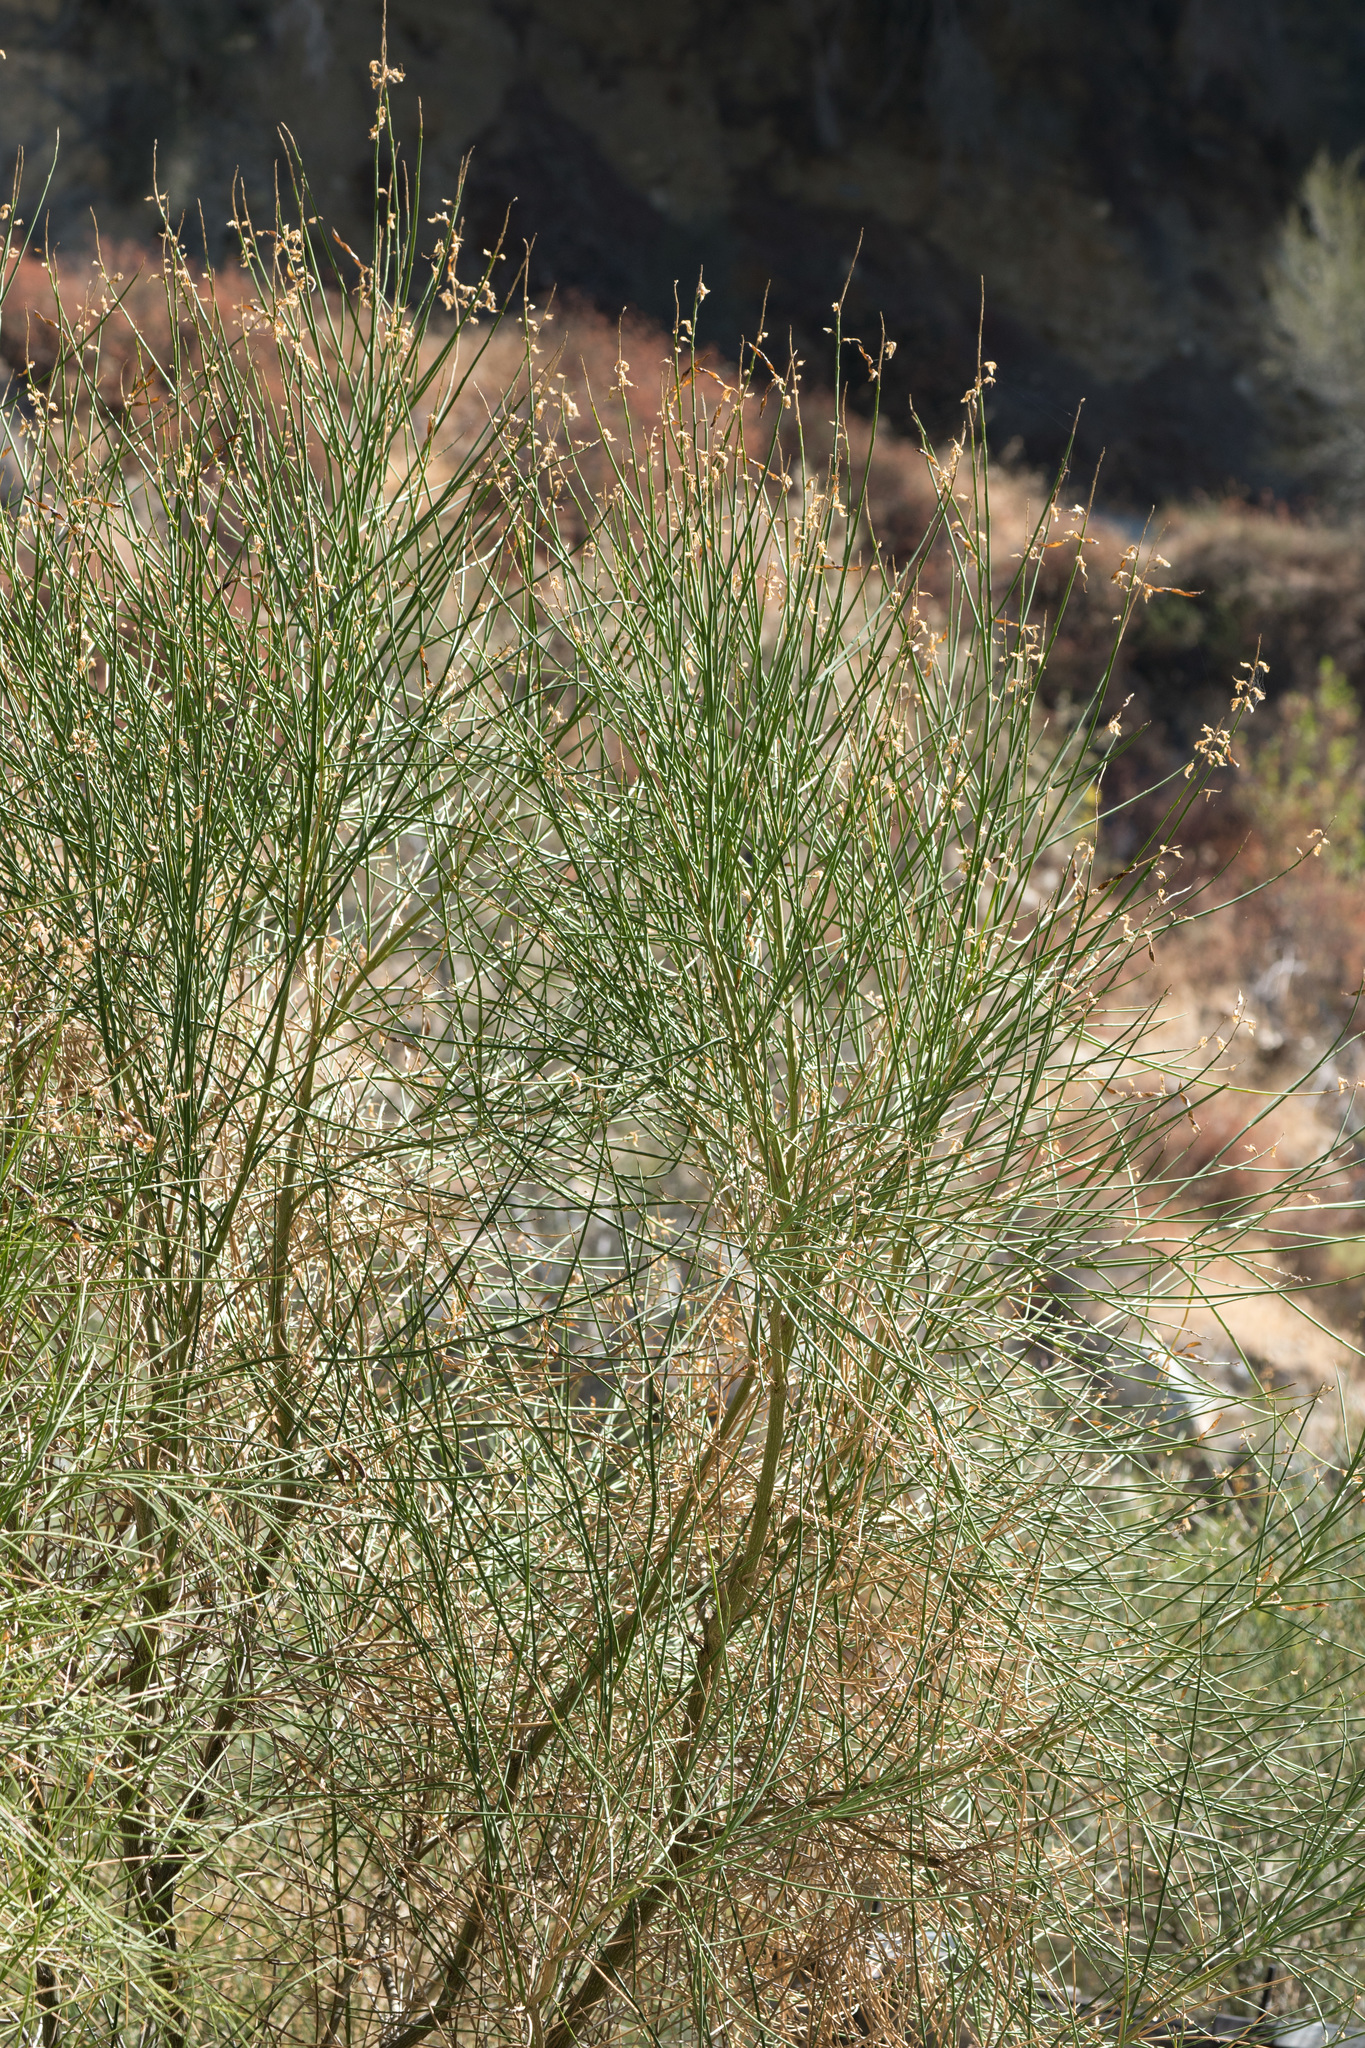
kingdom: Plantae
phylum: Tracheophyta
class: Magnoliopsida
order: Fabales
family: Fabaceae
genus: Spartium
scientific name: Spartium junceum
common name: Spanish broom
